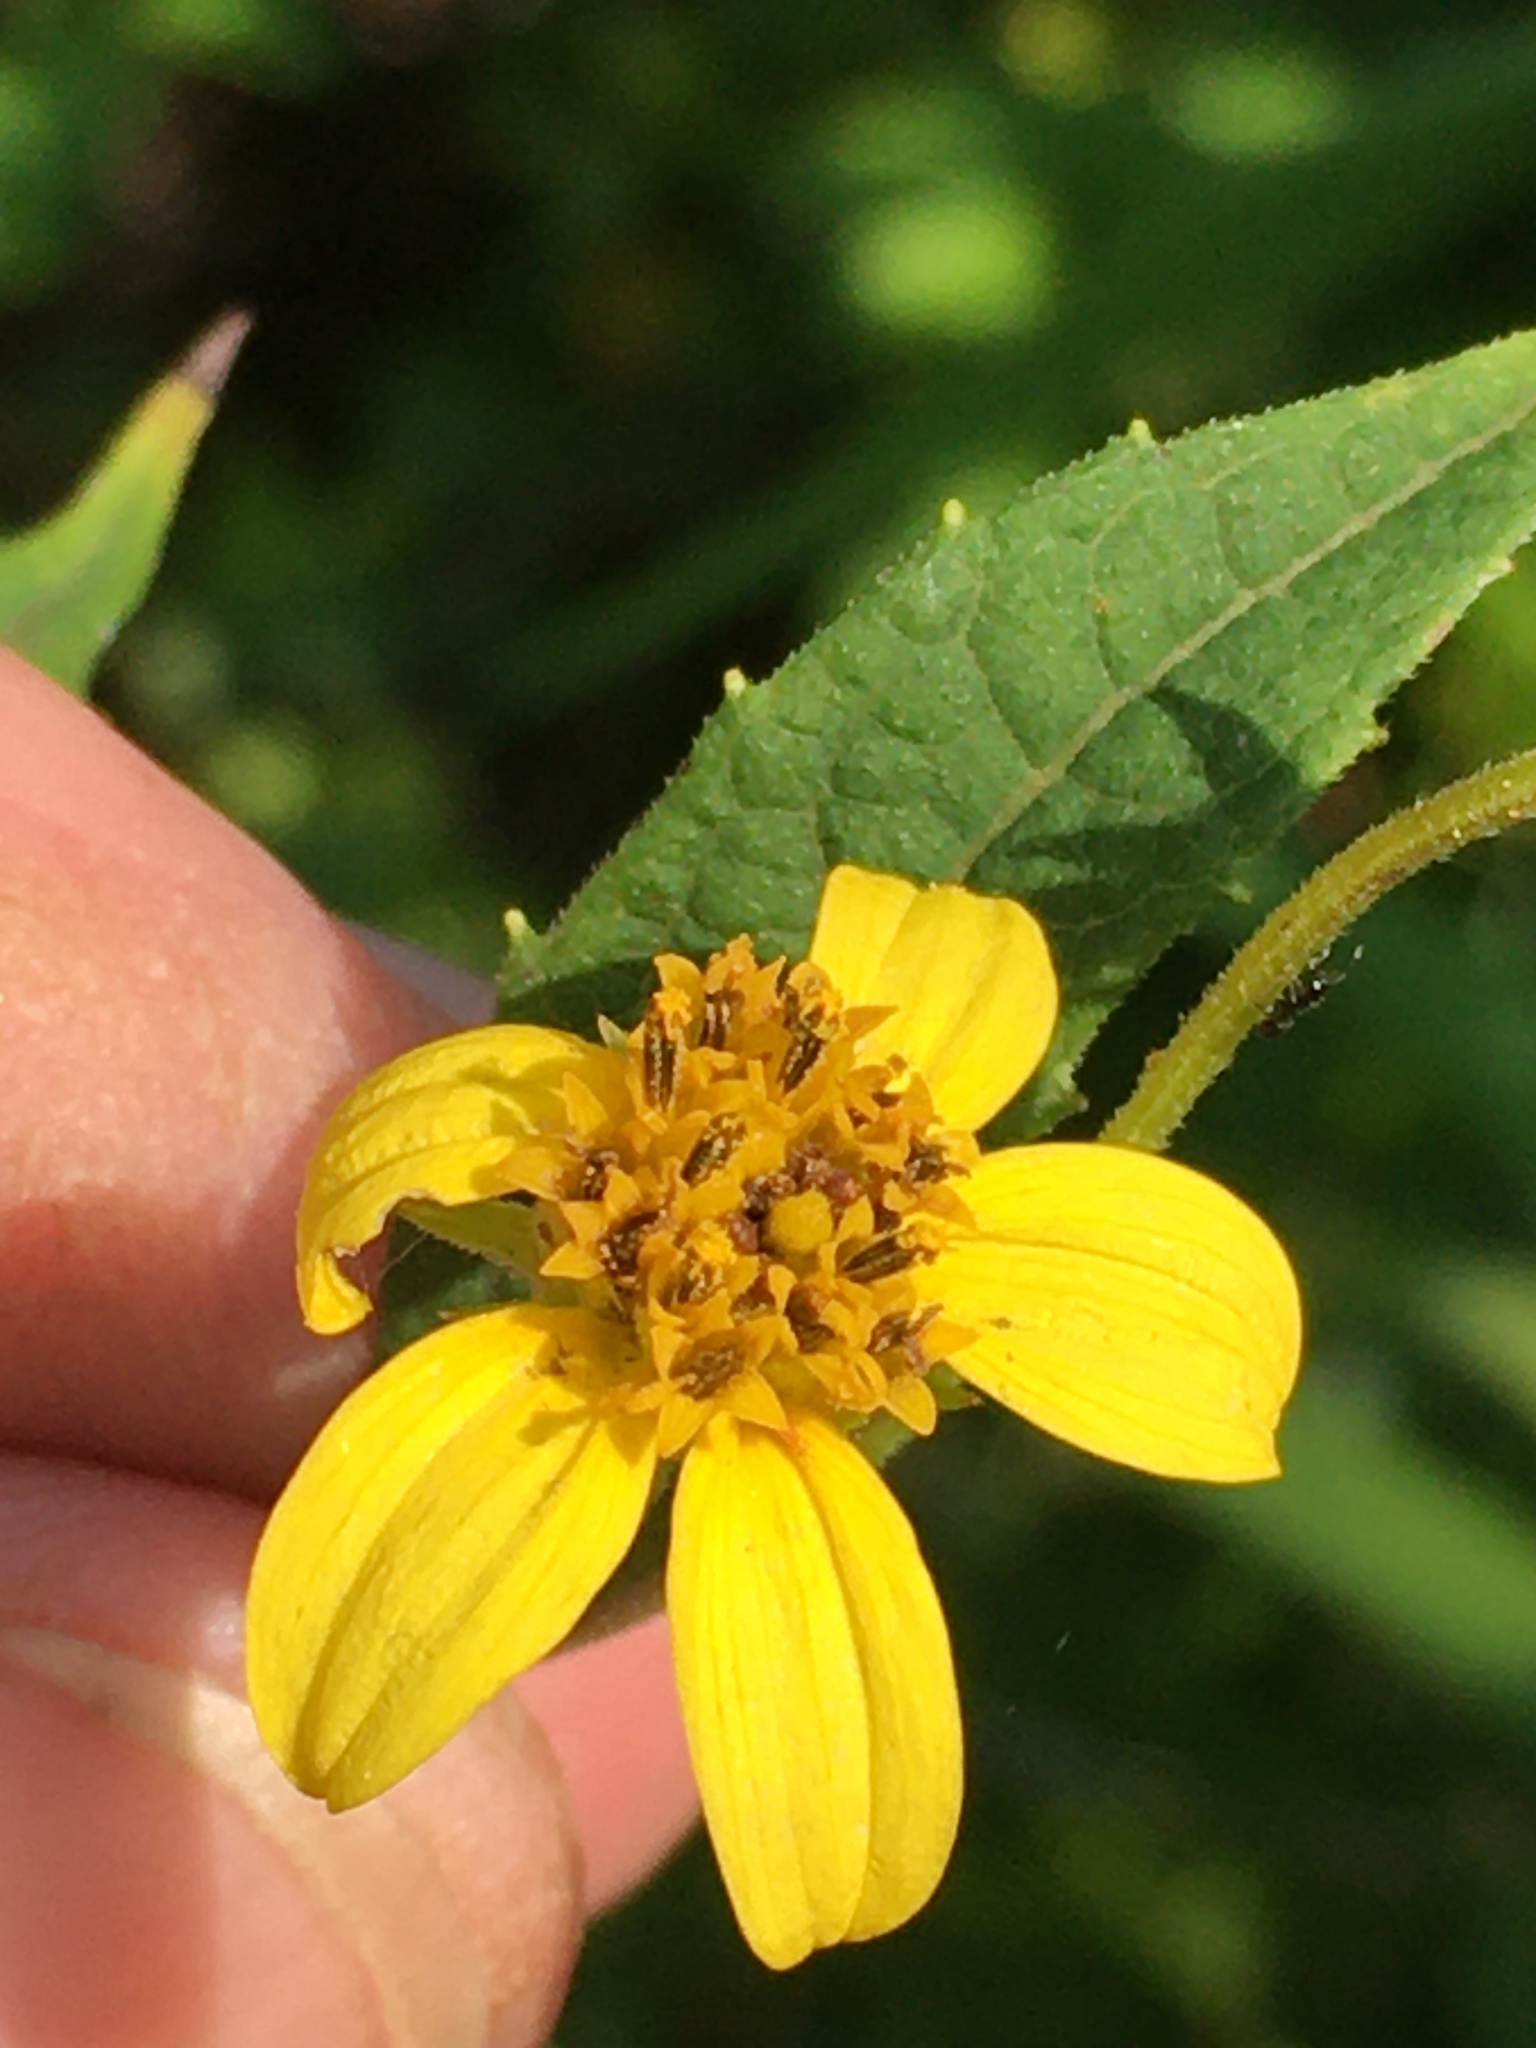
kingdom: Plantae
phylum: Tracheophyta
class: Magnoliopsida
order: Asterales
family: Asteraceae
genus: Helianthus
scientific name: Helianthus microcephalus
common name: Woodland sunflower
